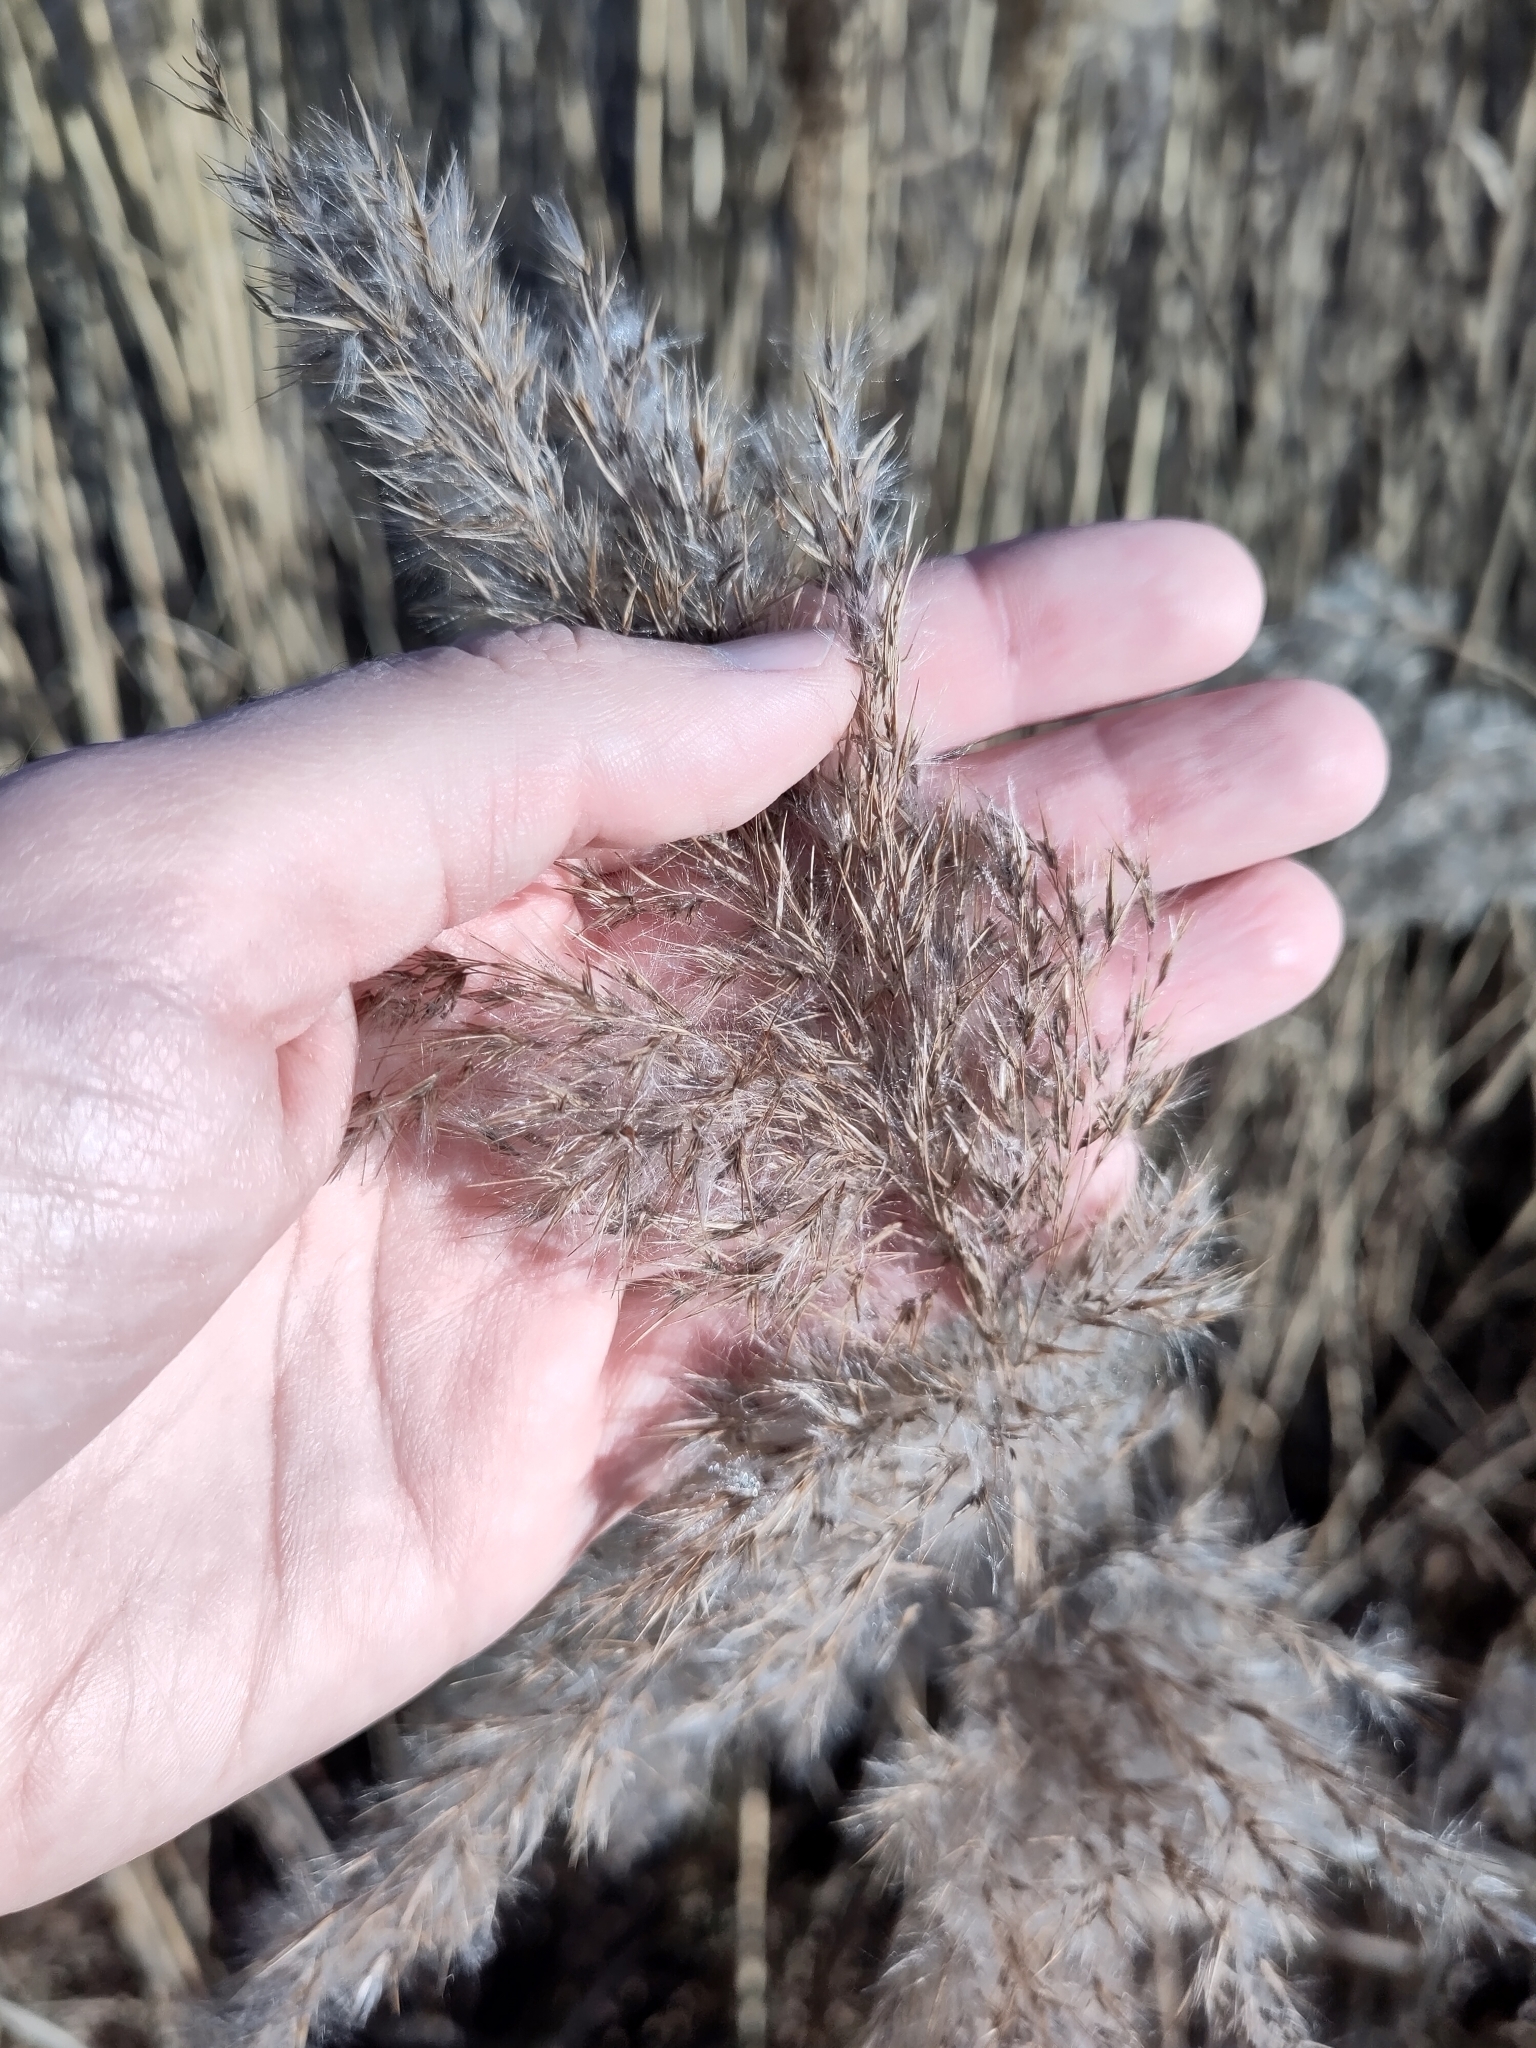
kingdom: Plantae
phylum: Tracheophyta
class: Liliopsida
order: Poales
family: Poaceae
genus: Phragmites
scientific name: Phragmites australis
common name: Common reed
